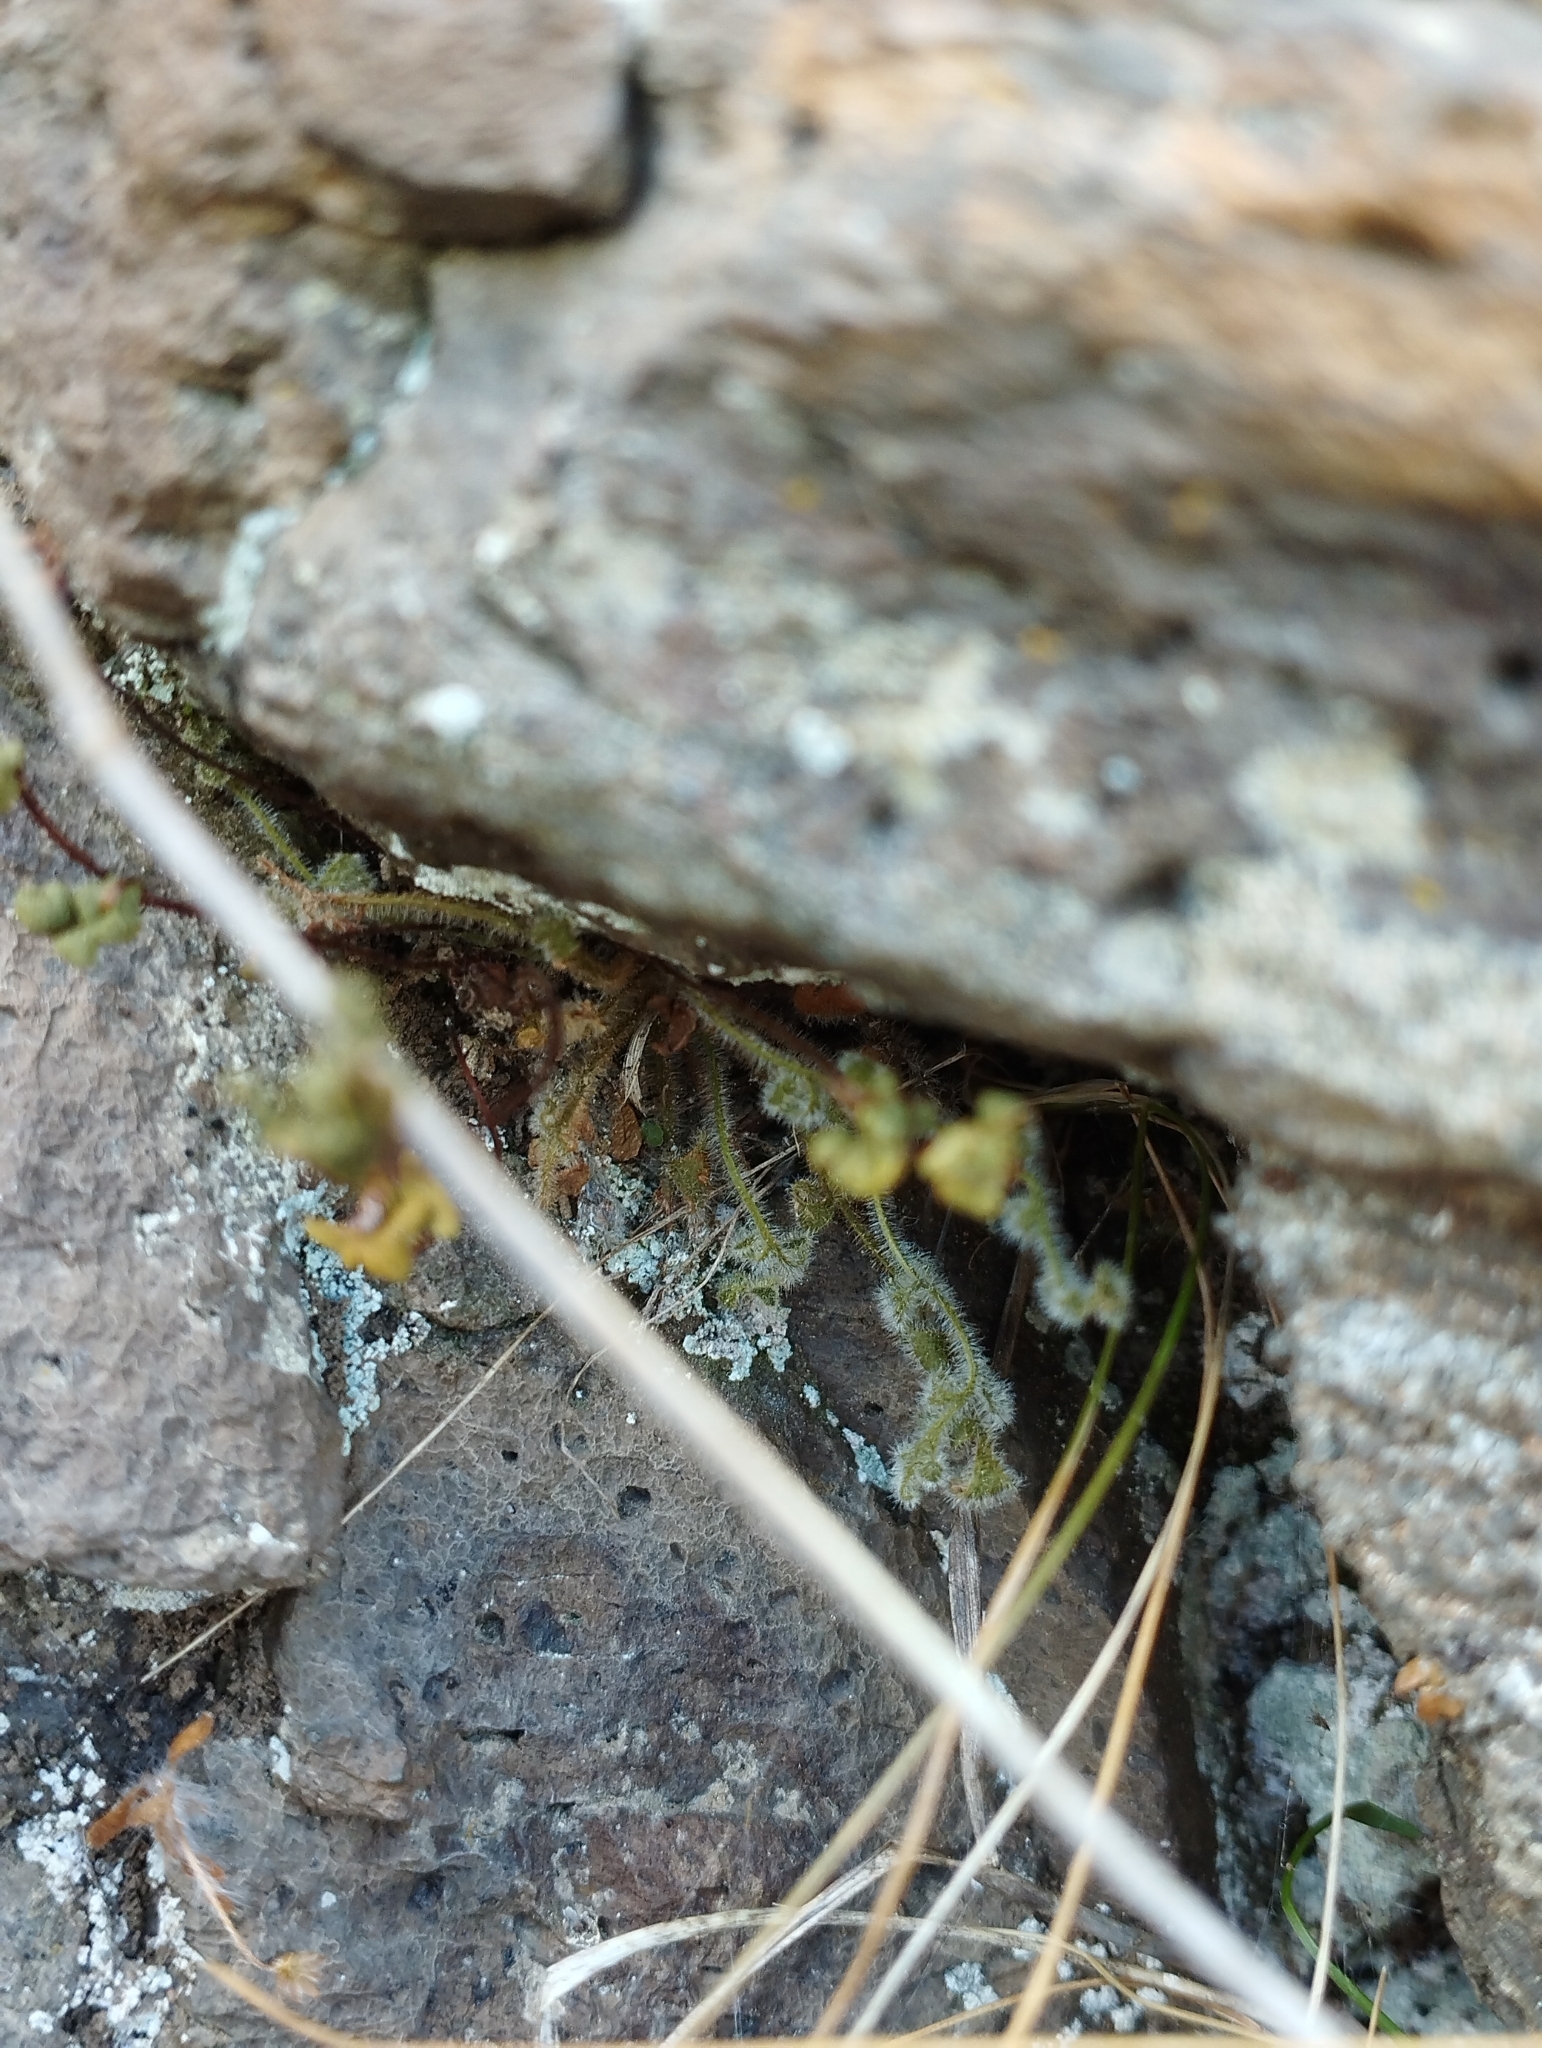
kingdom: Plantae
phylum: Tracheophyta
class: Polypodiopsida
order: Polypodiales
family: Aspleniaceae
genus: Asplenium
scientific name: Asplenium subglandulosum
